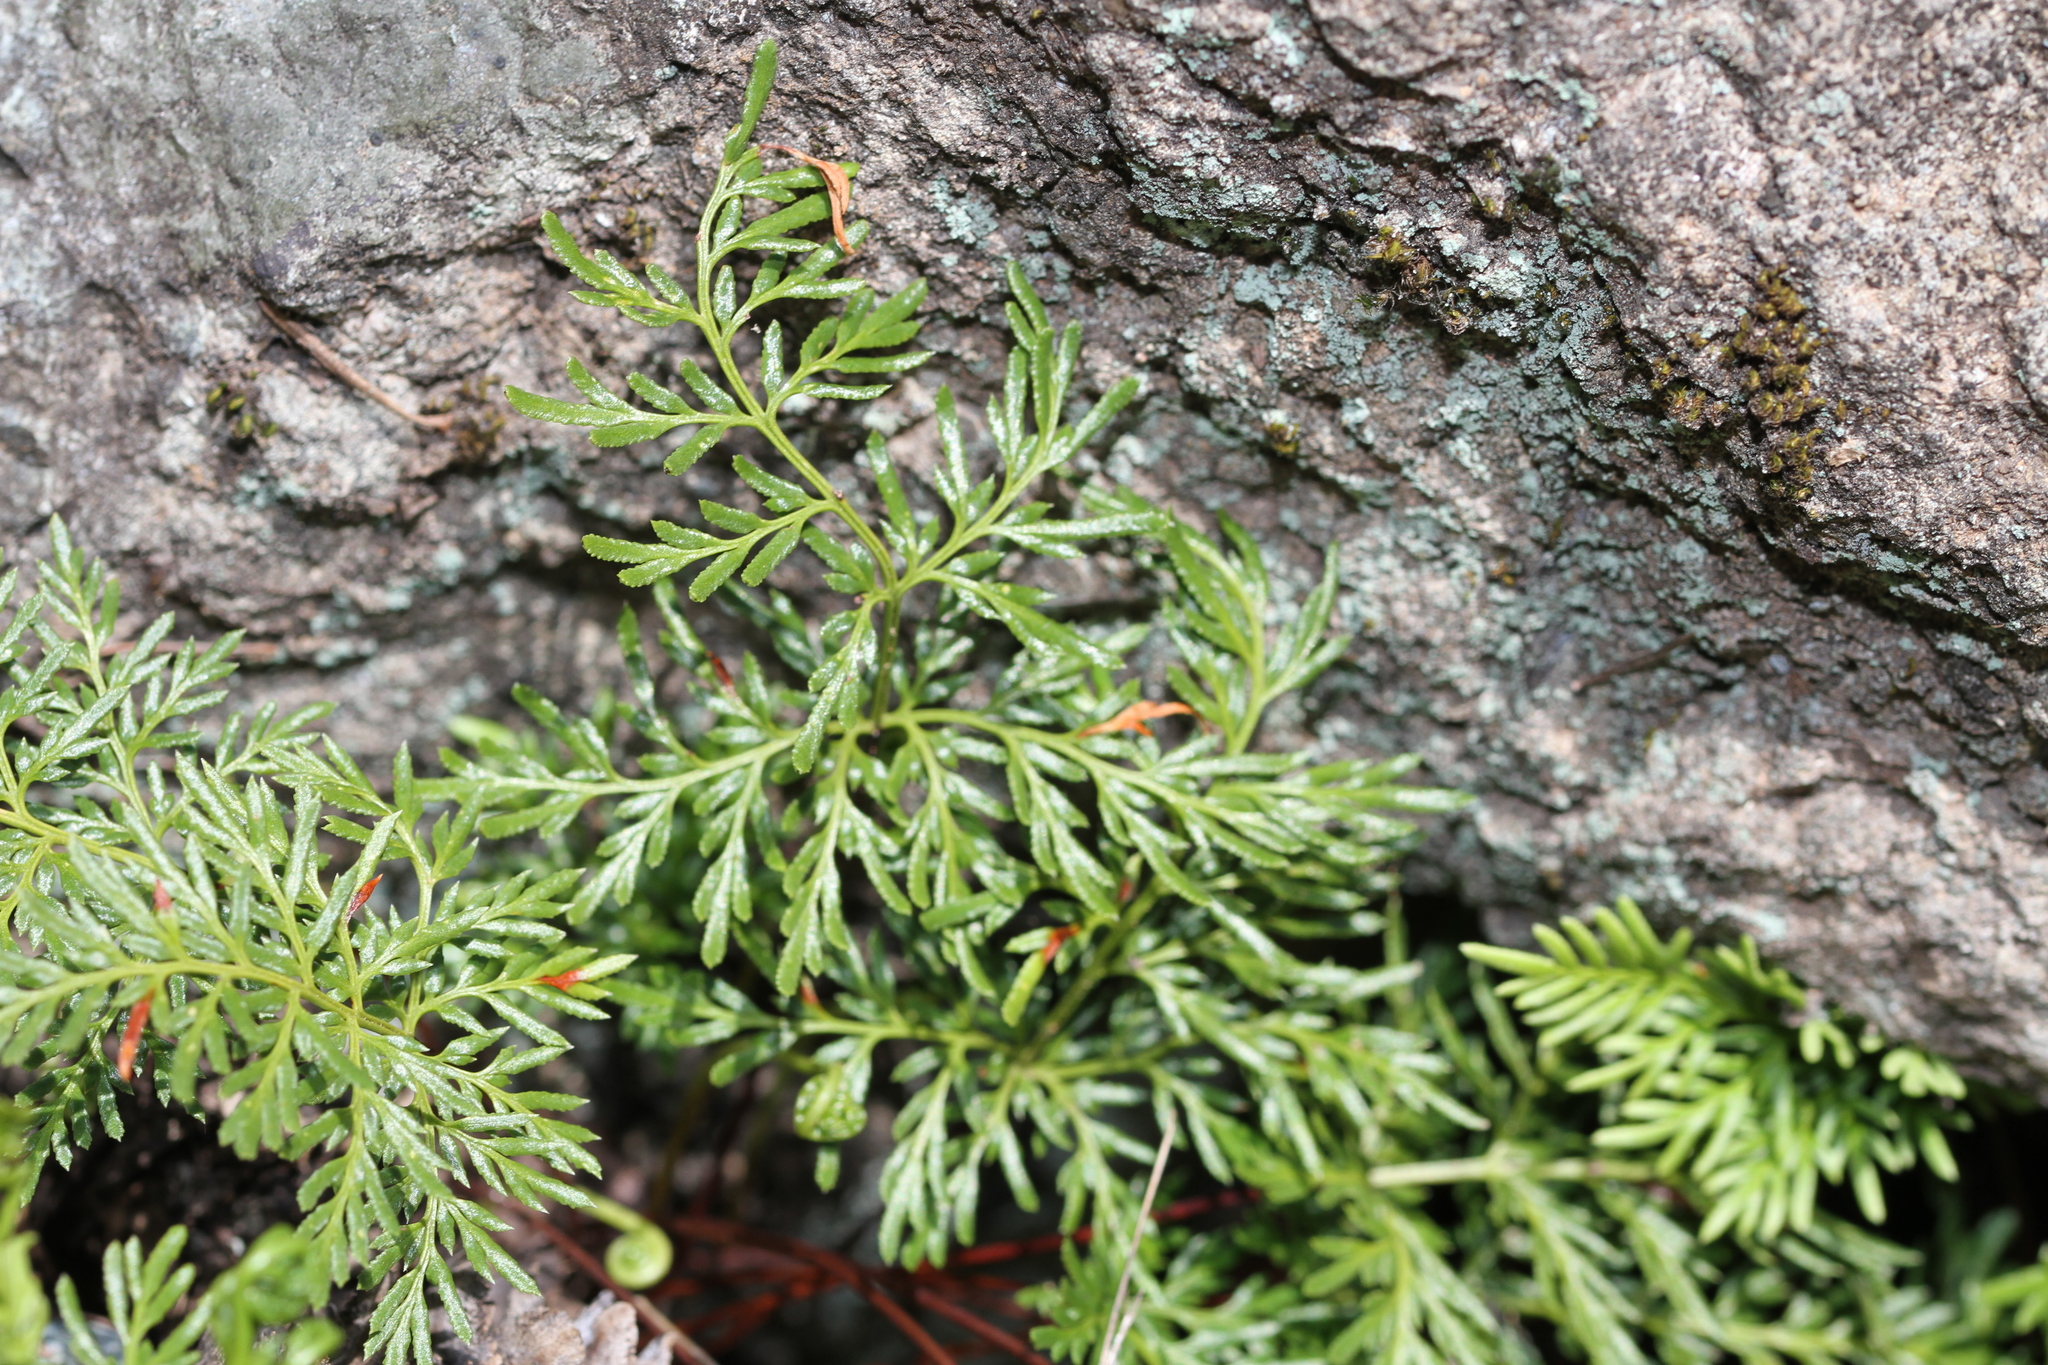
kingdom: Plantae
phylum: Tracheophyta
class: Polypodiopsida
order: Polypodiales
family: Pteridaceae
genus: Aspidotis
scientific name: Aspidotis densa
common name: Indian's dream
